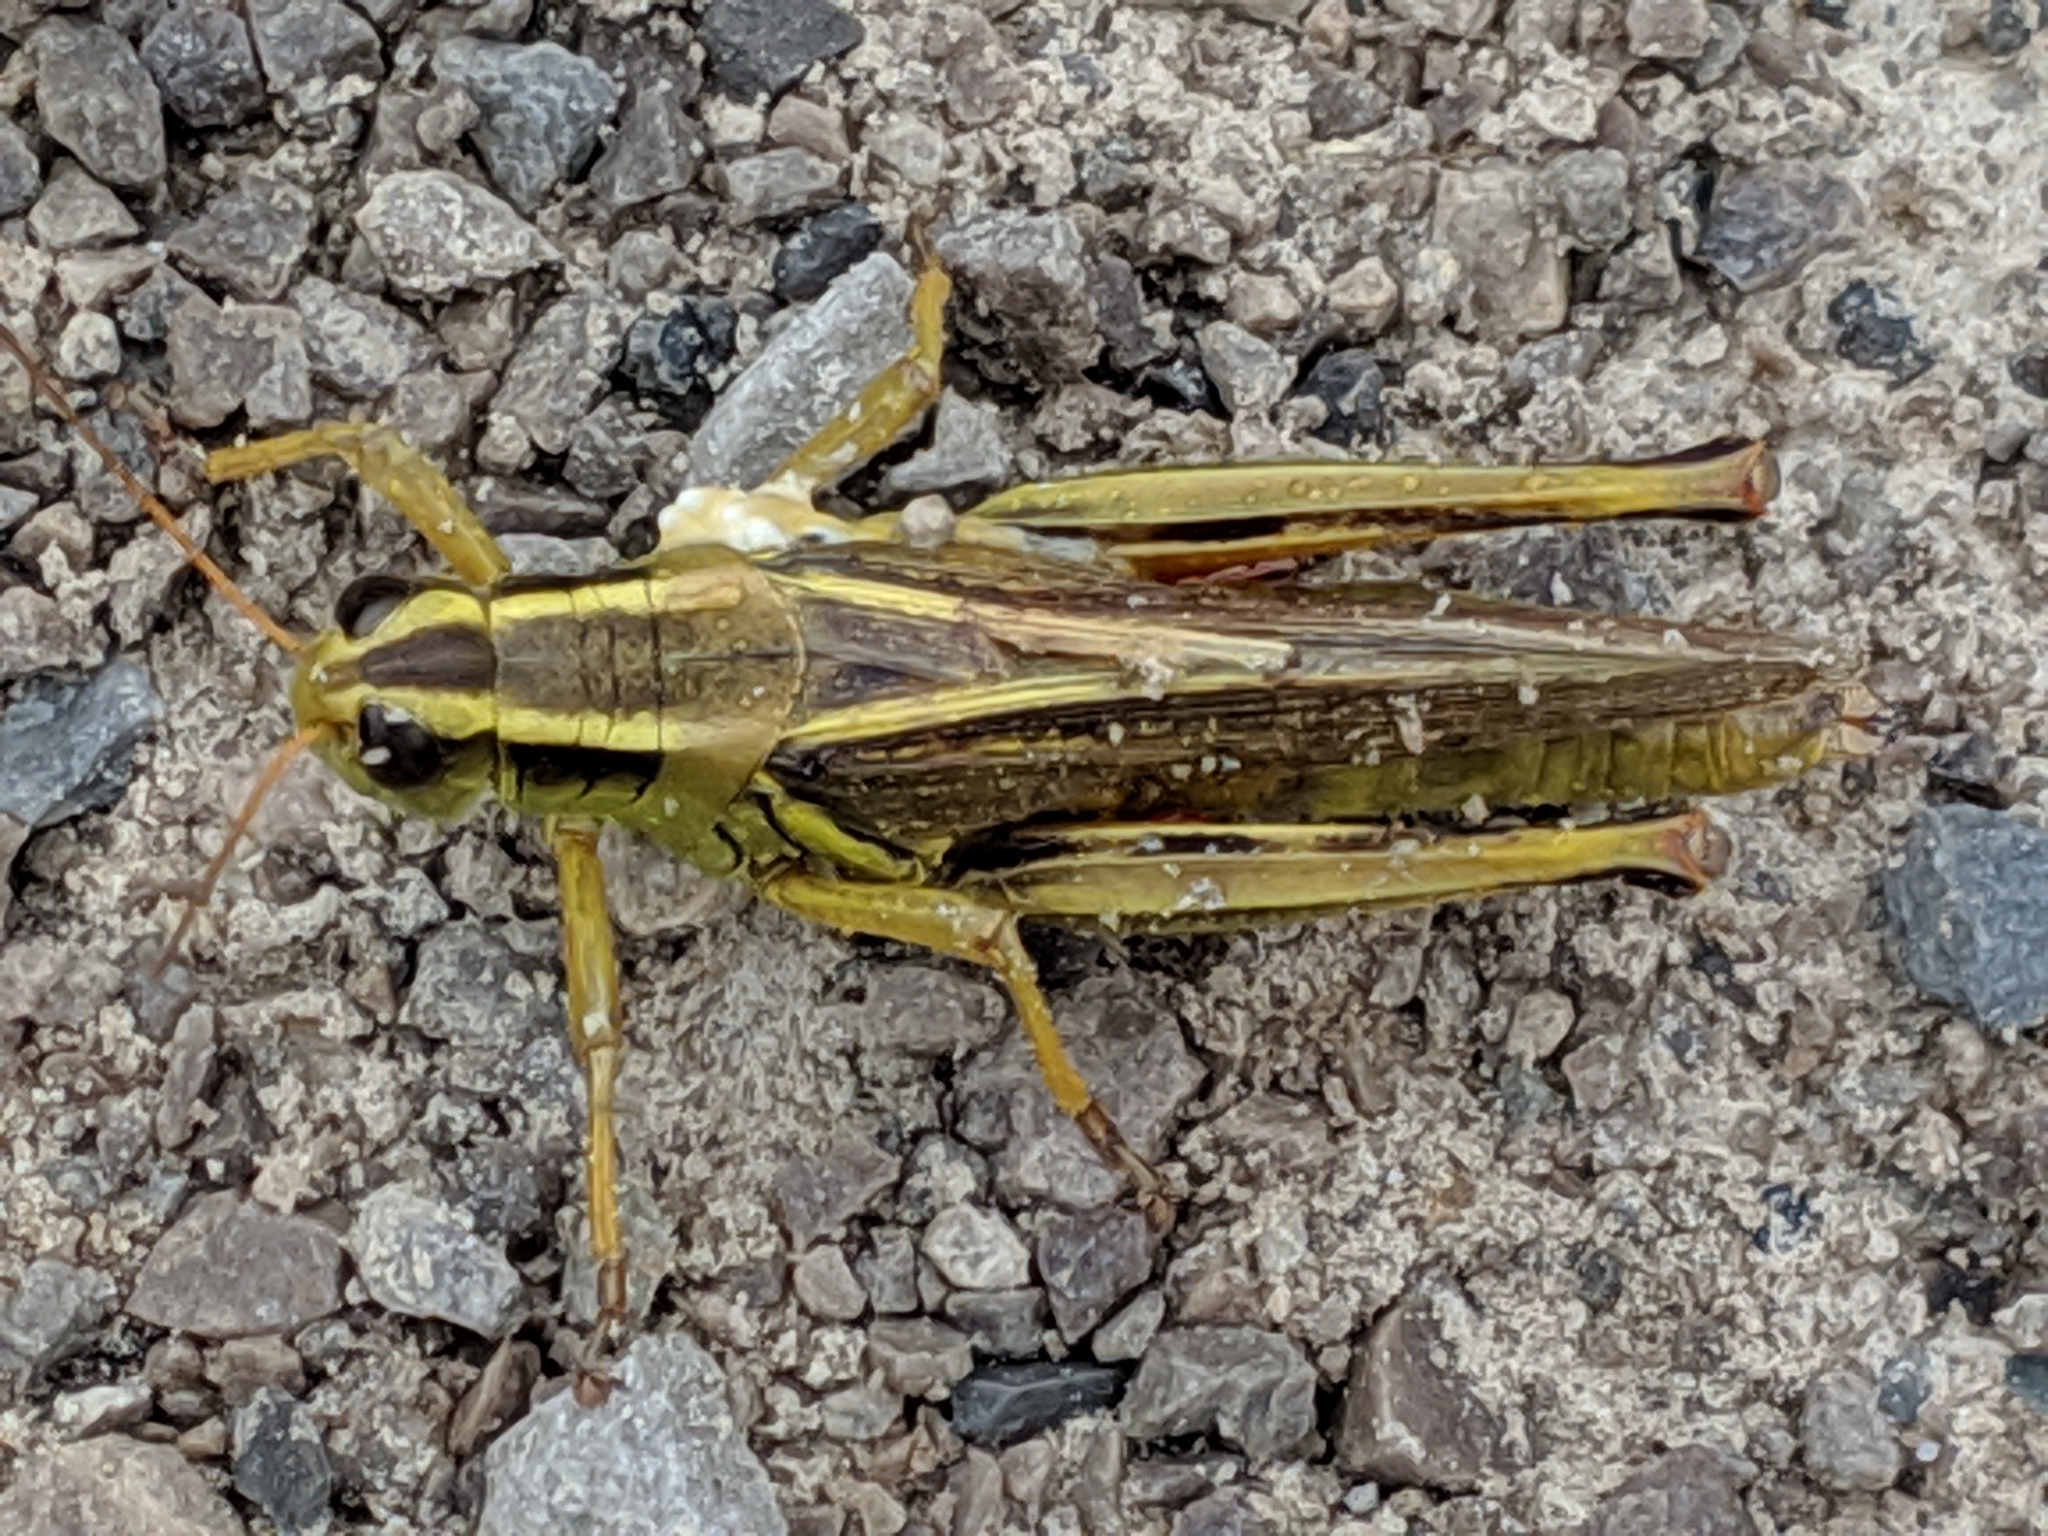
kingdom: Animalia
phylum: Arthropoda
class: Insecta
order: Orthoptera
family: Acrididae
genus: Melanoplus
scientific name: Melanoplus bivittatus
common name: Two-striped grasshopper
